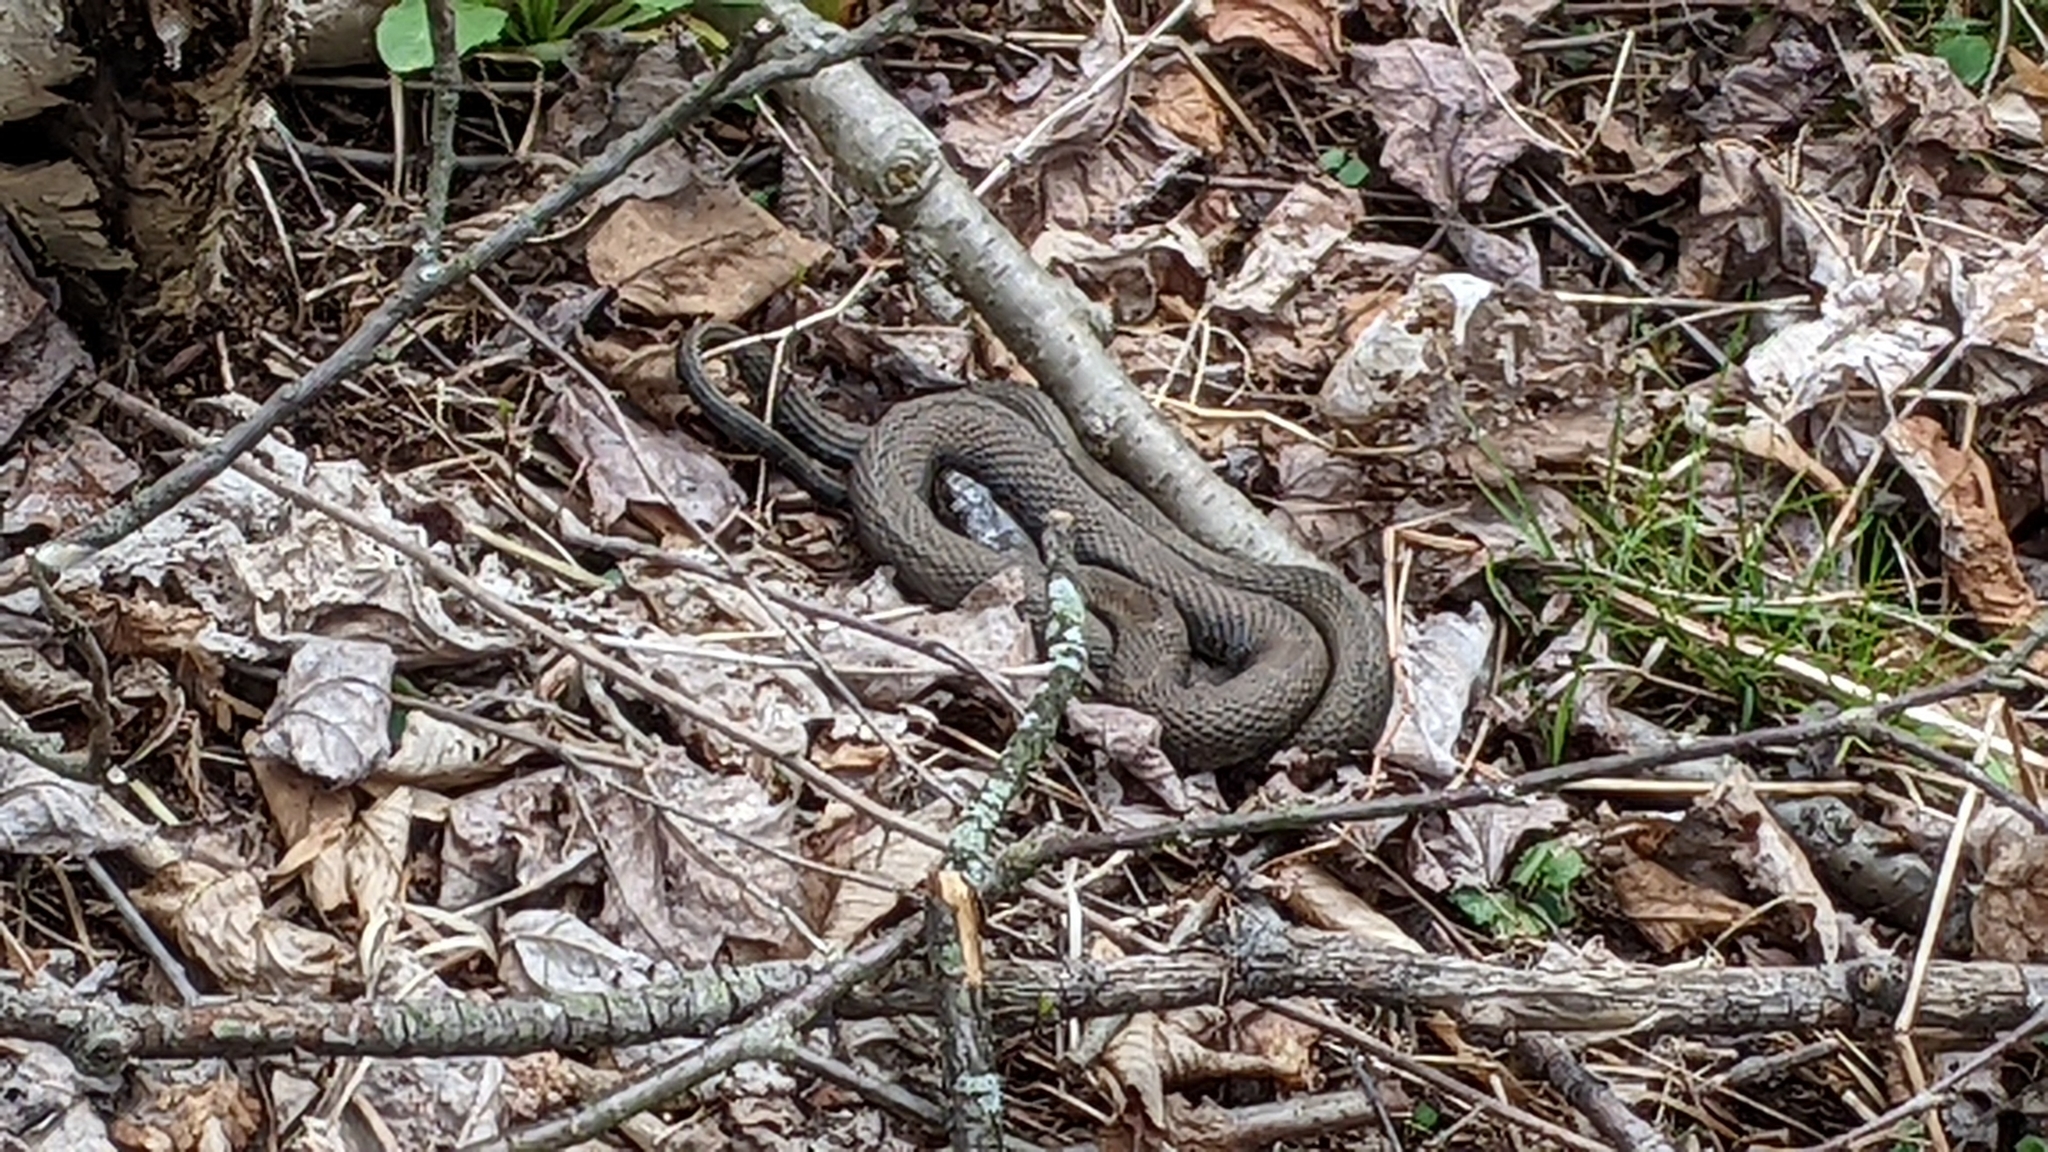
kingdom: Animalia
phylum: Chordata
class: Squamata
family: Colubridae
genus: Nerodia
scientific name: Nerodia sipedon
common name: Northern water snake
